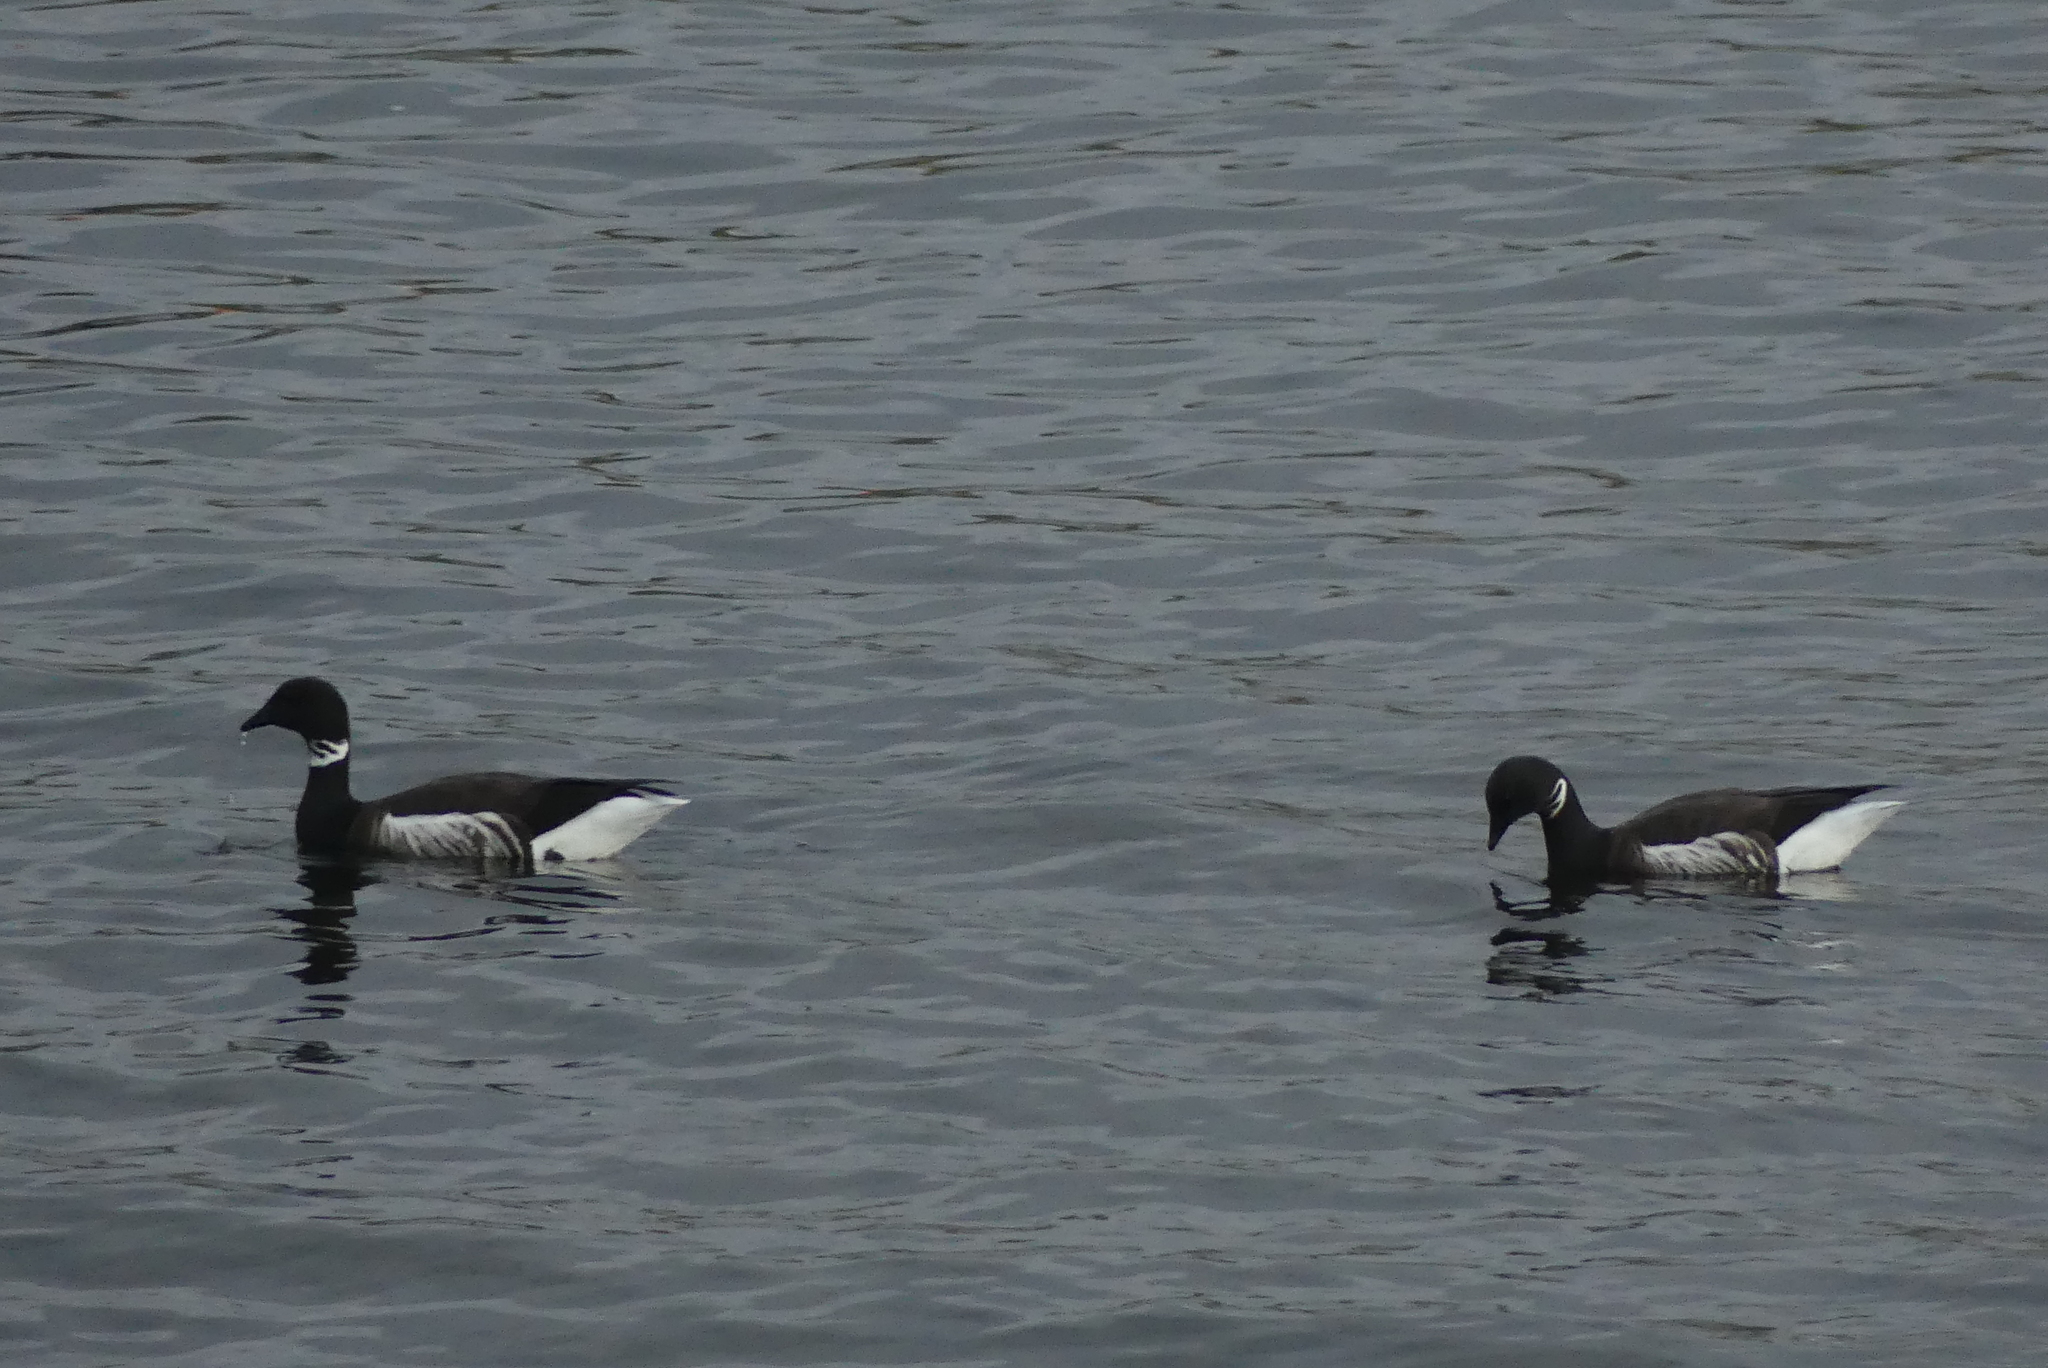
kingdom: Animalia
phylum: Chordata
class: Aves
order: Anseriformes
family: Anatidae
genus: Branta
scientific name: Branta bernicla
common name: Brant goose
